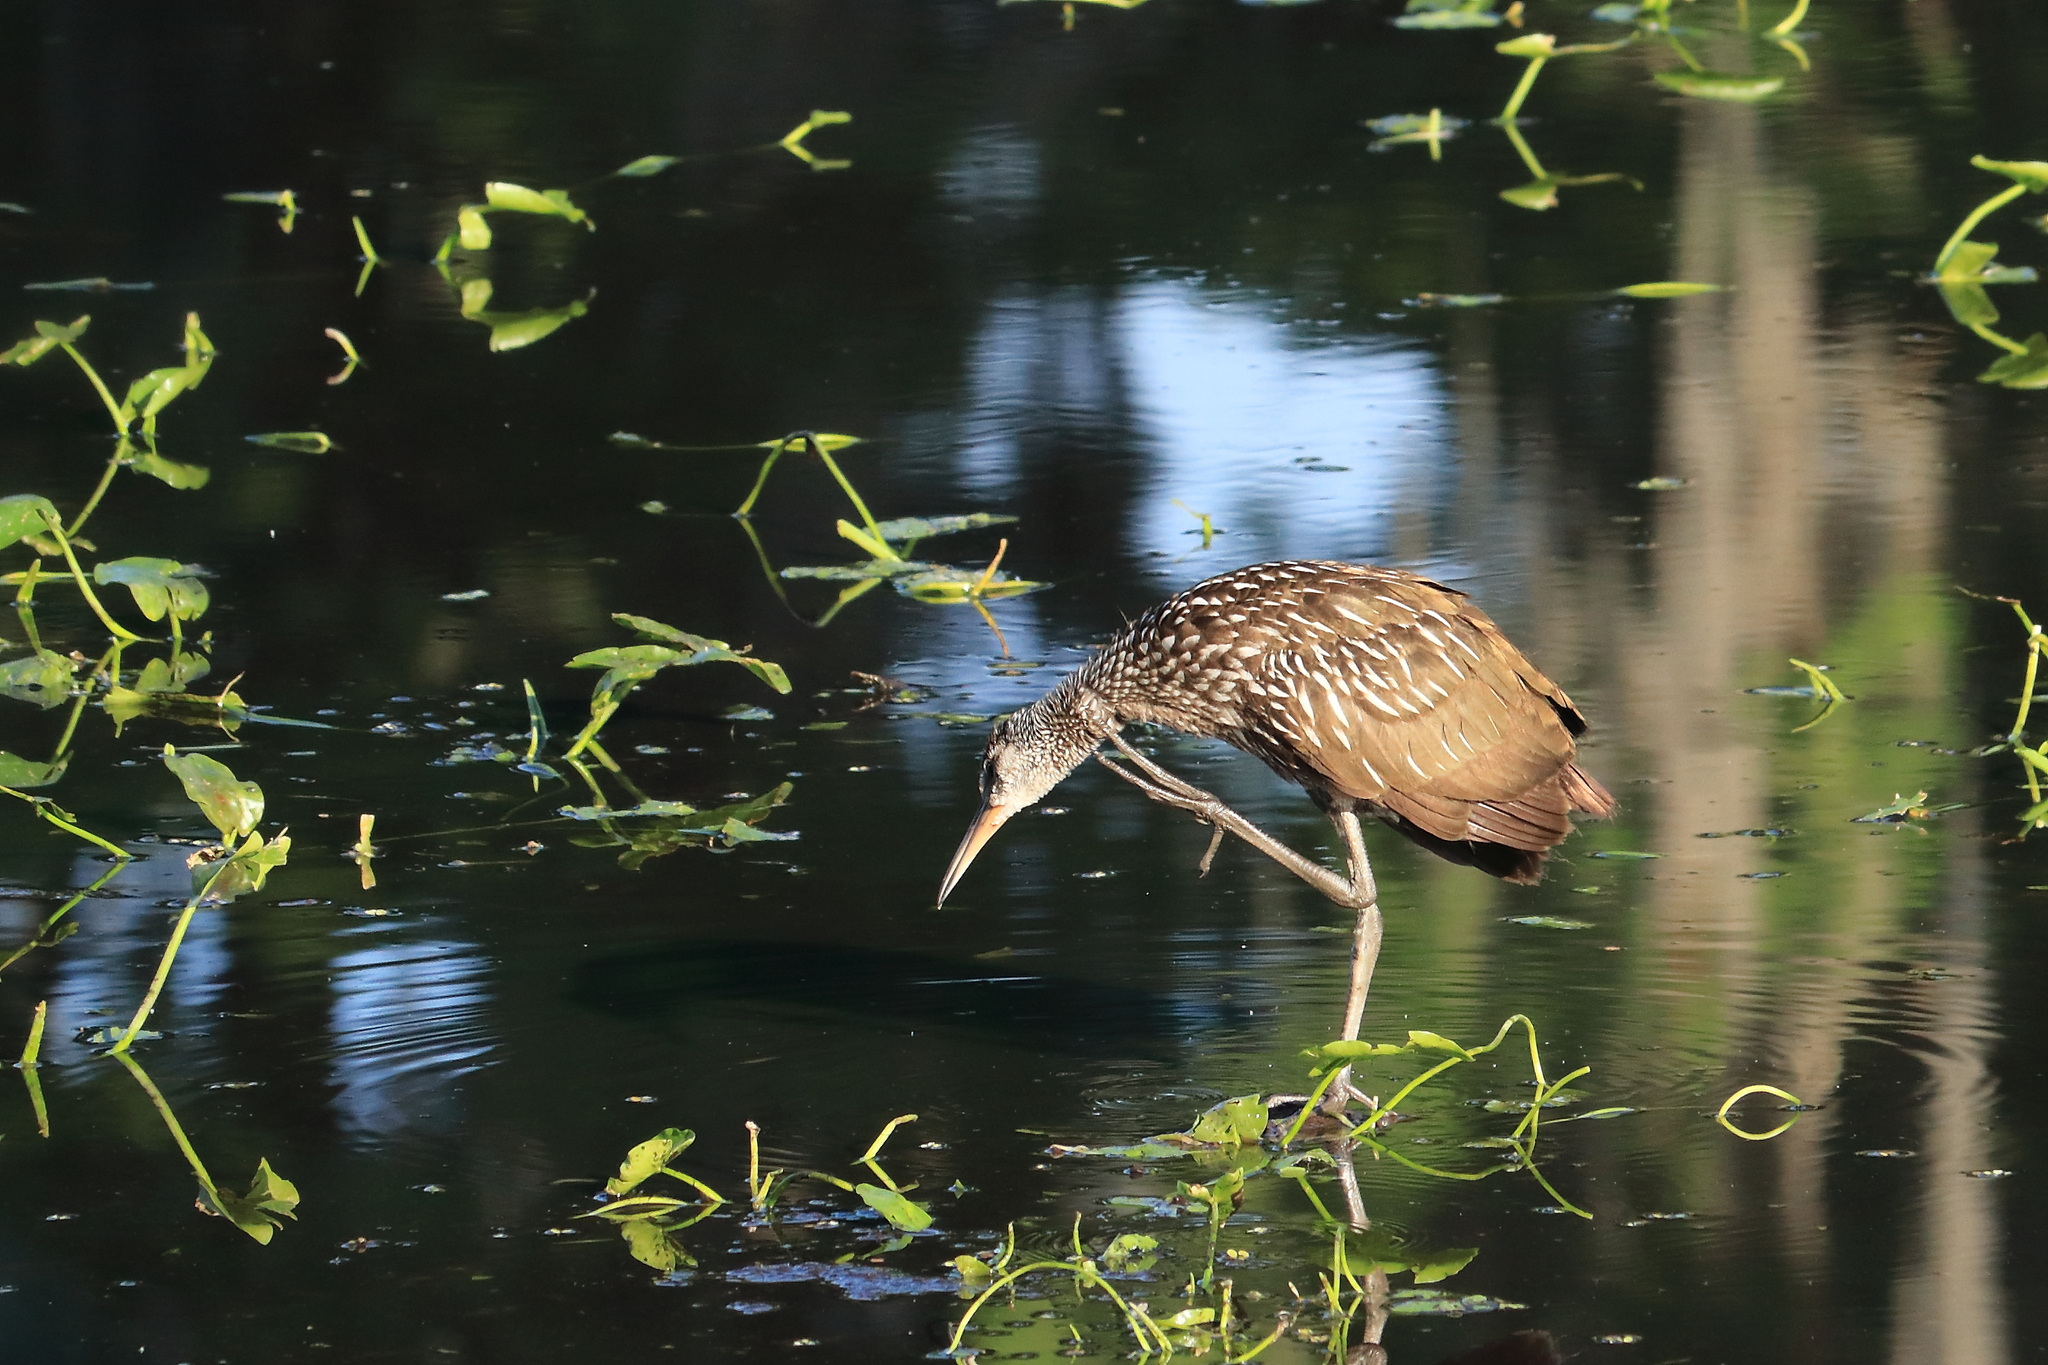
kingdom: Animalia
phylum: Chordata
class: Aves
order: Gruiformes
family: Aramidae
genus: Aramus
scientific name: Aramus guarauna
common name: Limpkin
